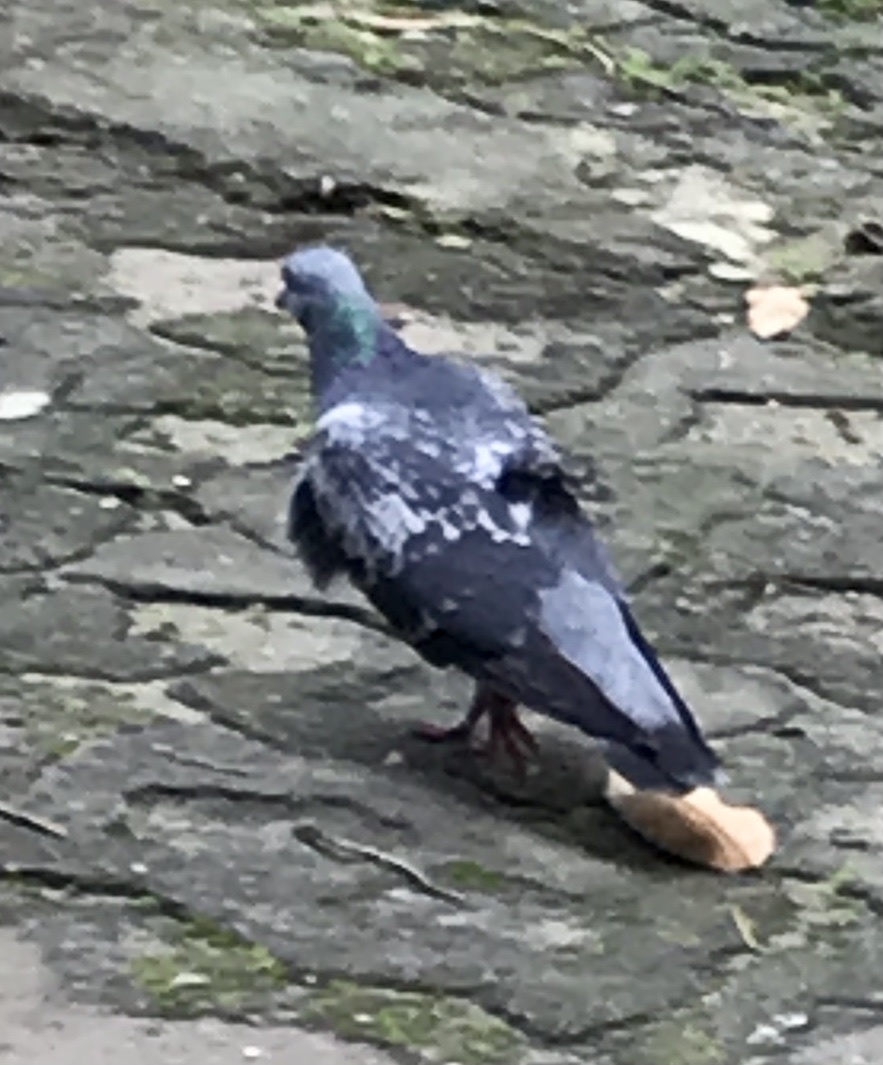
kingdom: Animalia
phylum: Chordata
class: Aves
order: Columbiformes
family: Columbidae
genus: Columba
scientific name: Columba livia
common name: Rock pigeon
